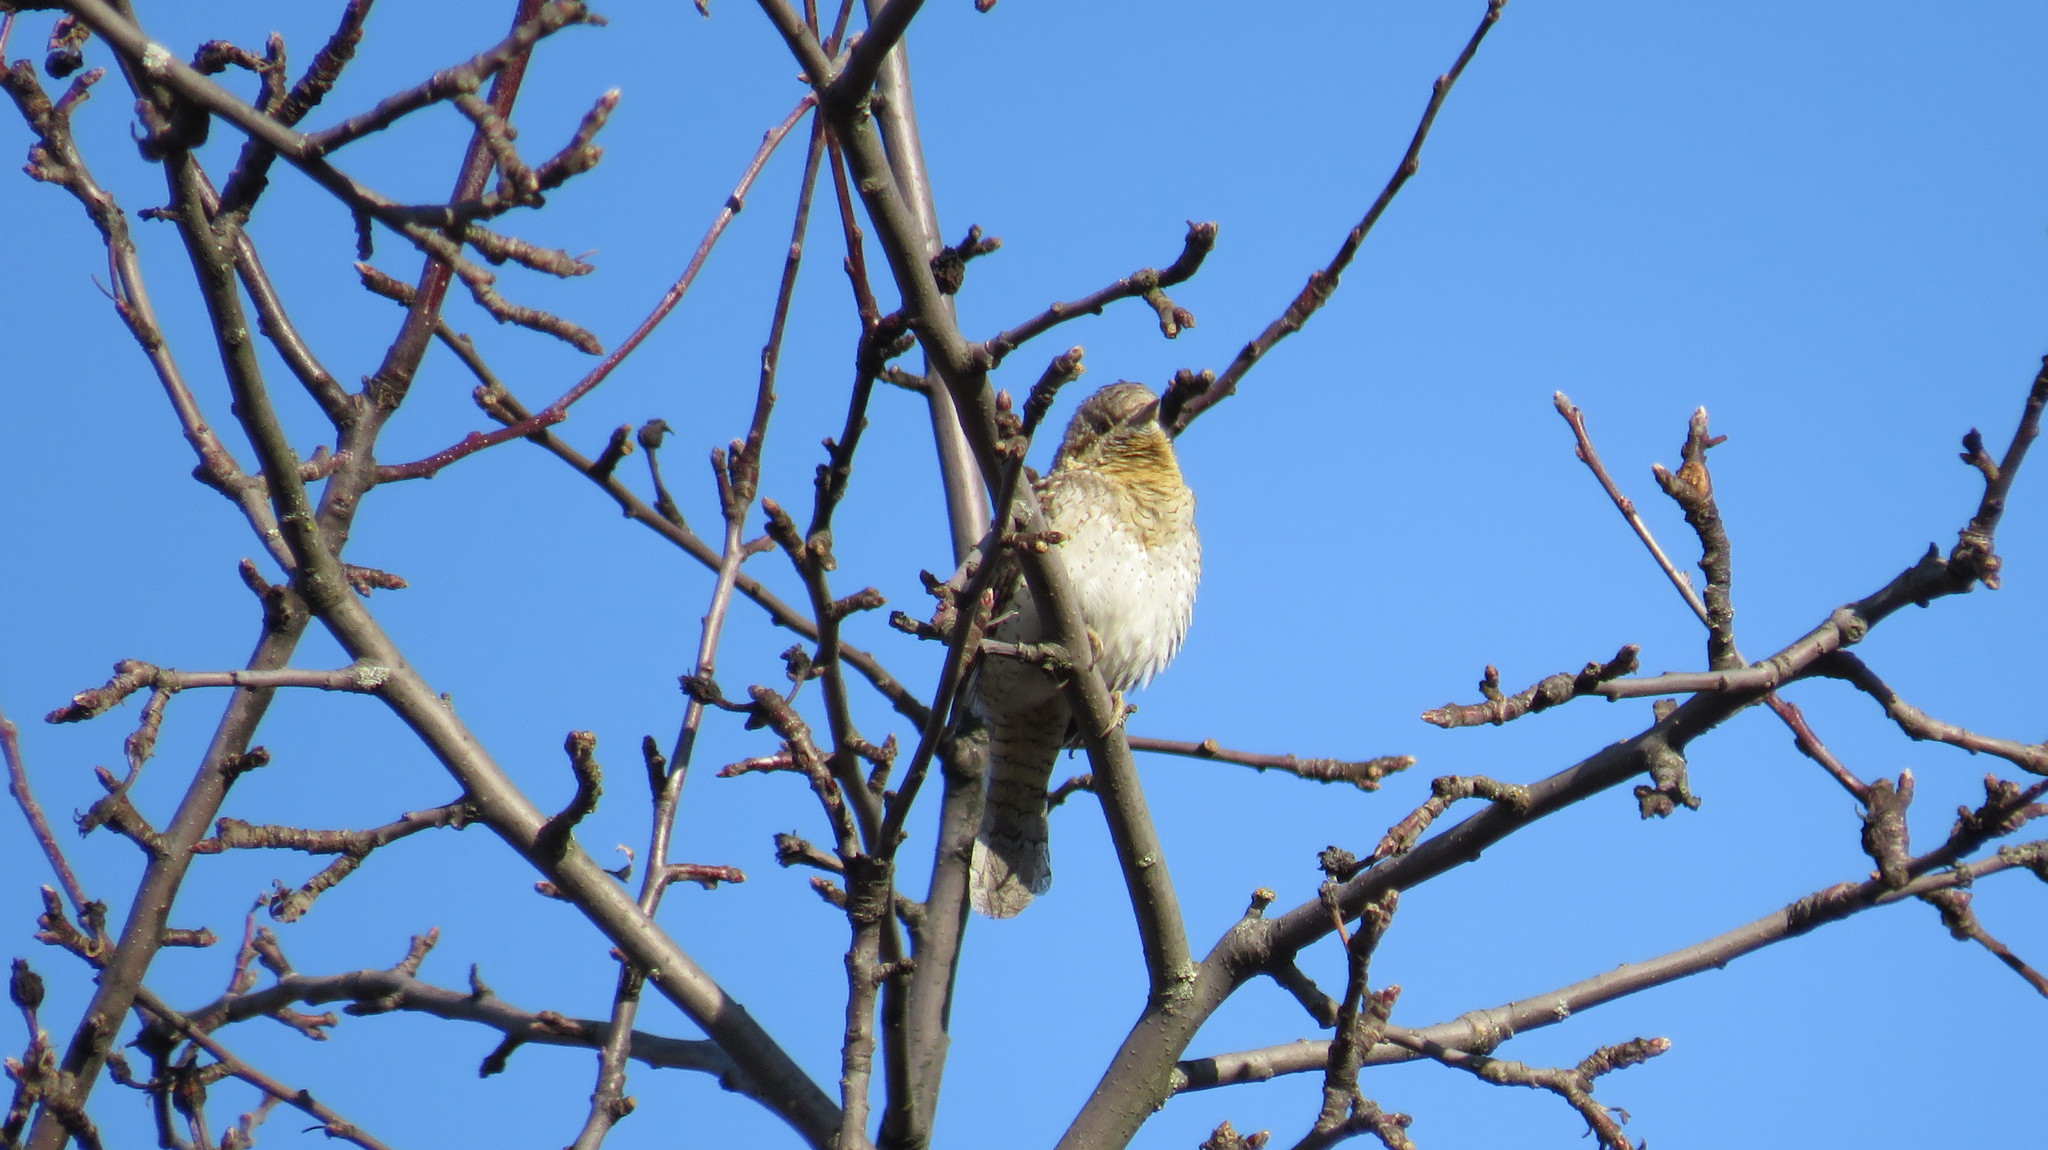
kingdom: Animalia
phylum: Chordata
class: Aves
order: Piciformes
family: Picidae
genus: Jynx
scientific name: Jynx torquilla
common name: Eurasian wryneck
